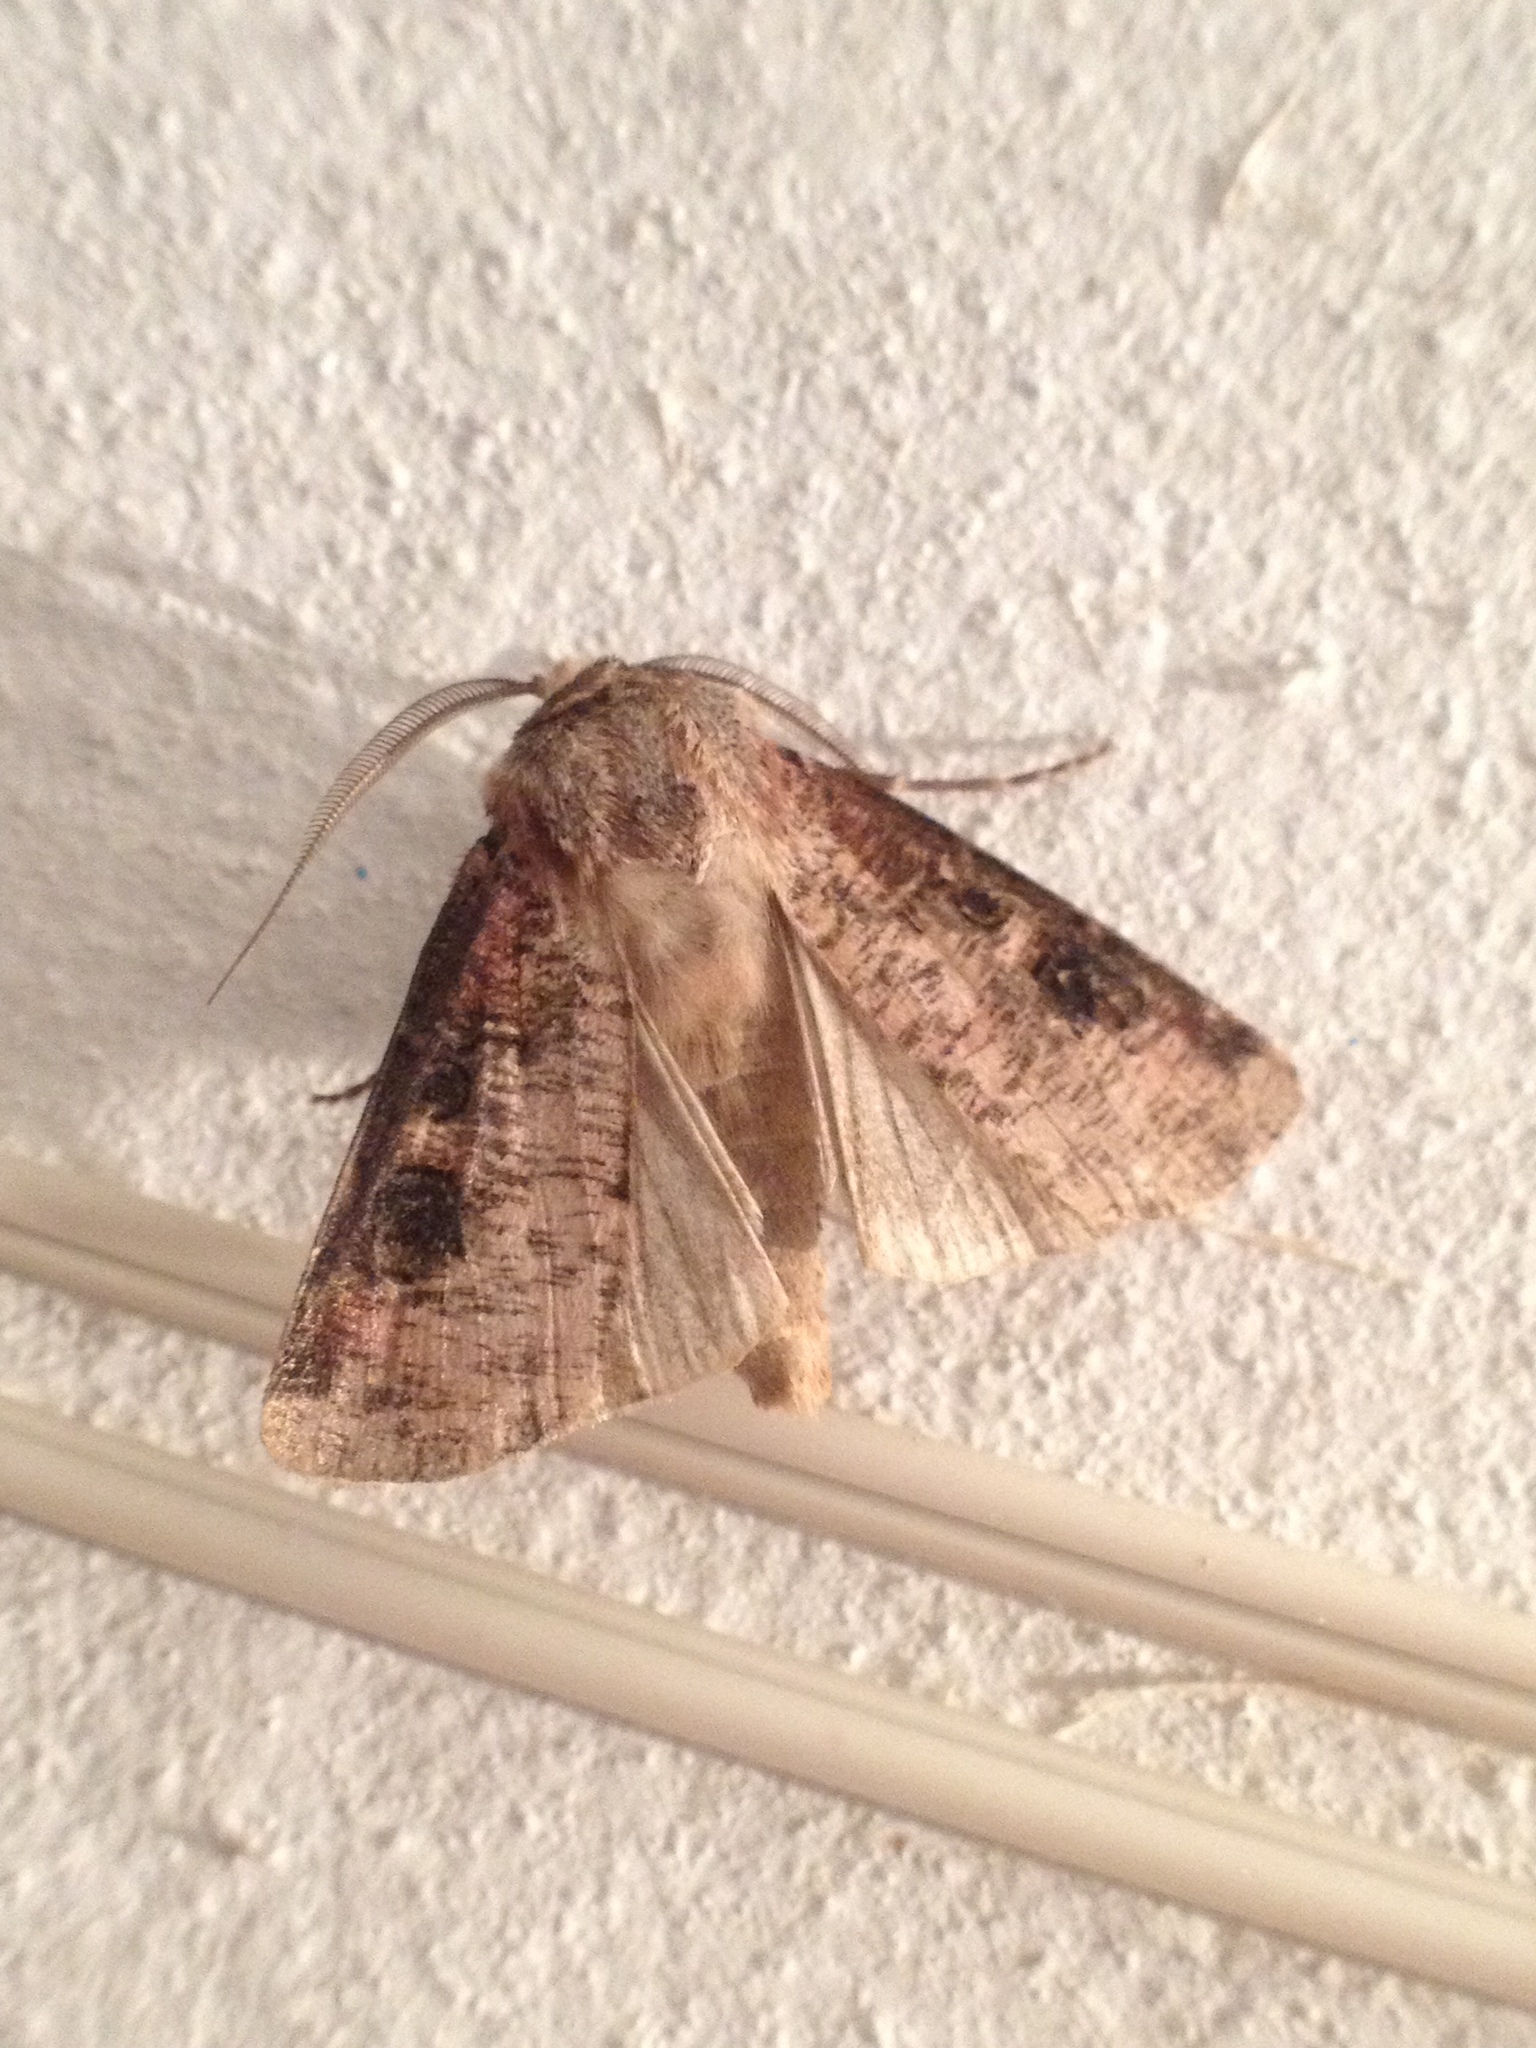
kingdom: Animalia
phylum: Arthropoda
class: Insecta
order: Lepidoptera
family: Noctuidae
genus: Agrotis
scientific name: Agrotis clavis
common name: Heart and club
